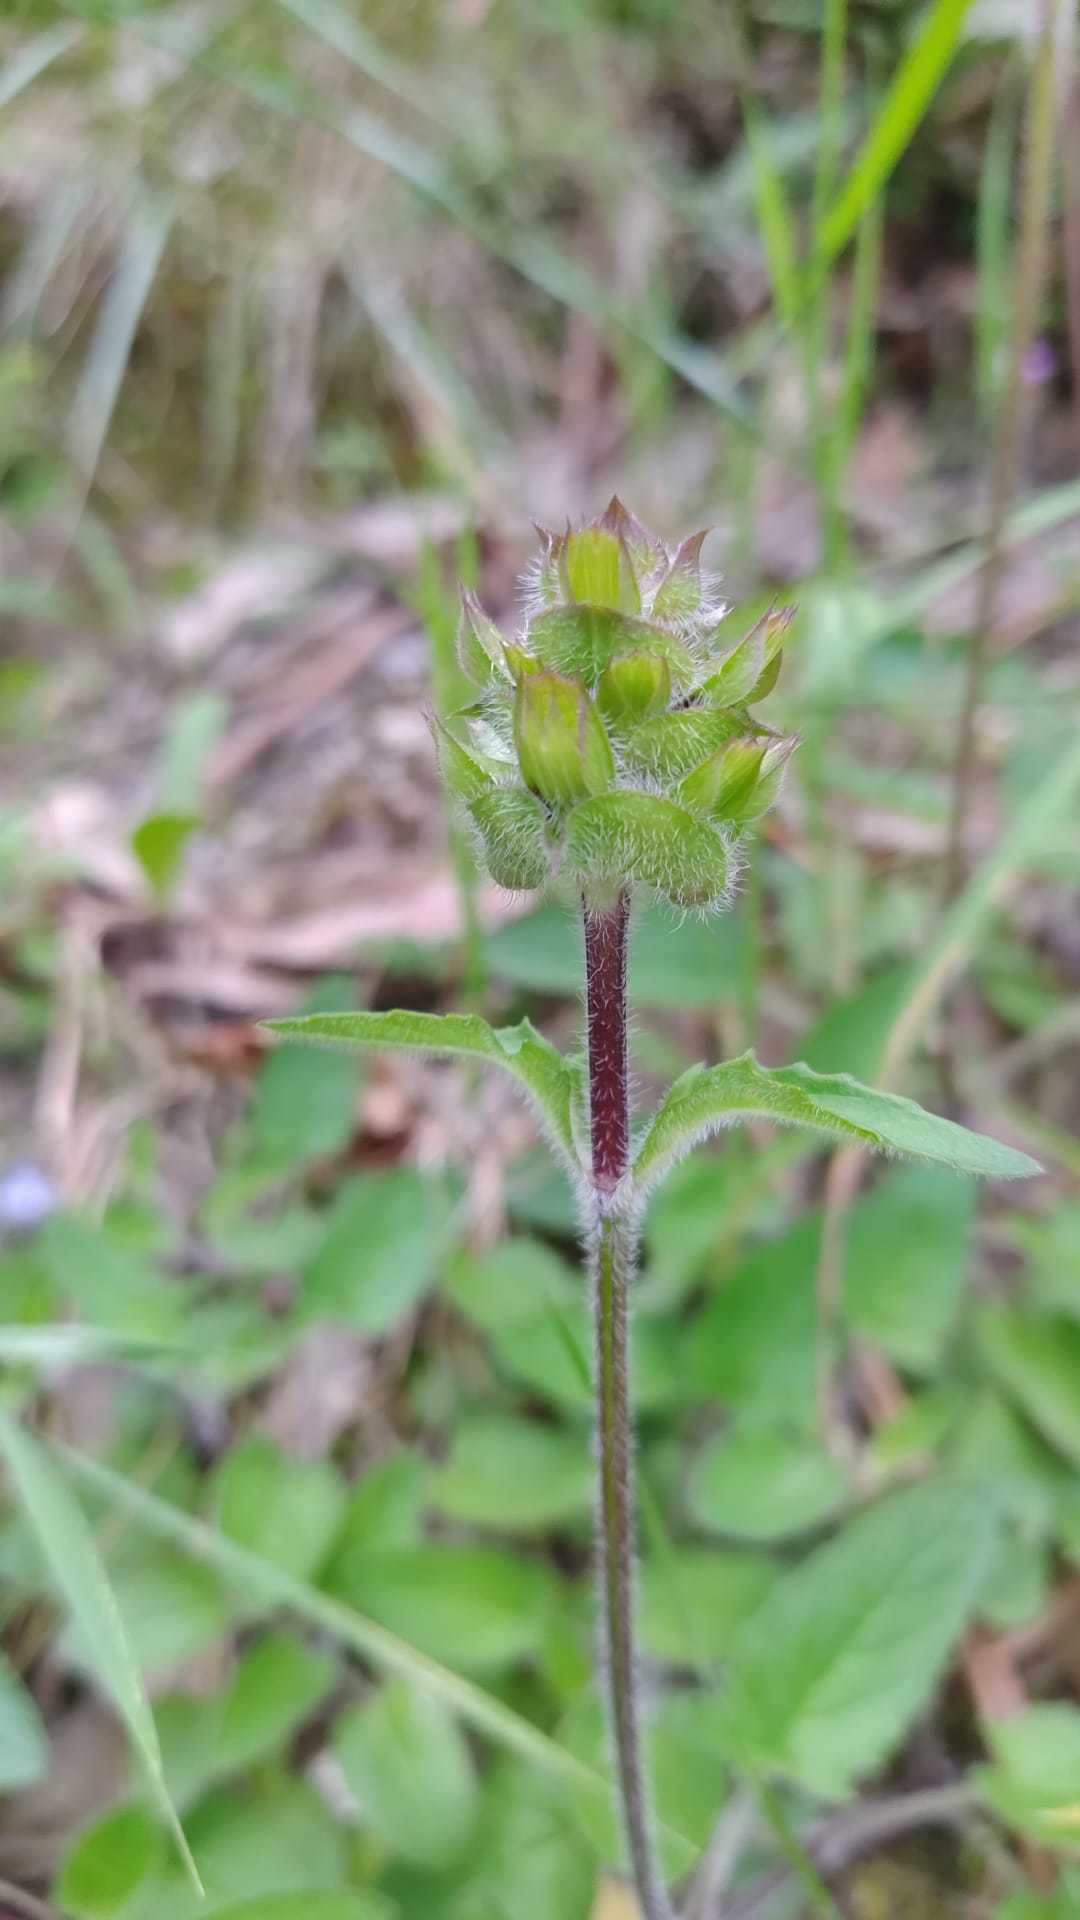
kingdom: Plantae
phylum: Tracheophyta
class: Magnoliopsida
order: Lamiales
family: Lamiaceae
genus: Prunella
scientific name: Prunella vulgaris
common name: Heal-all
